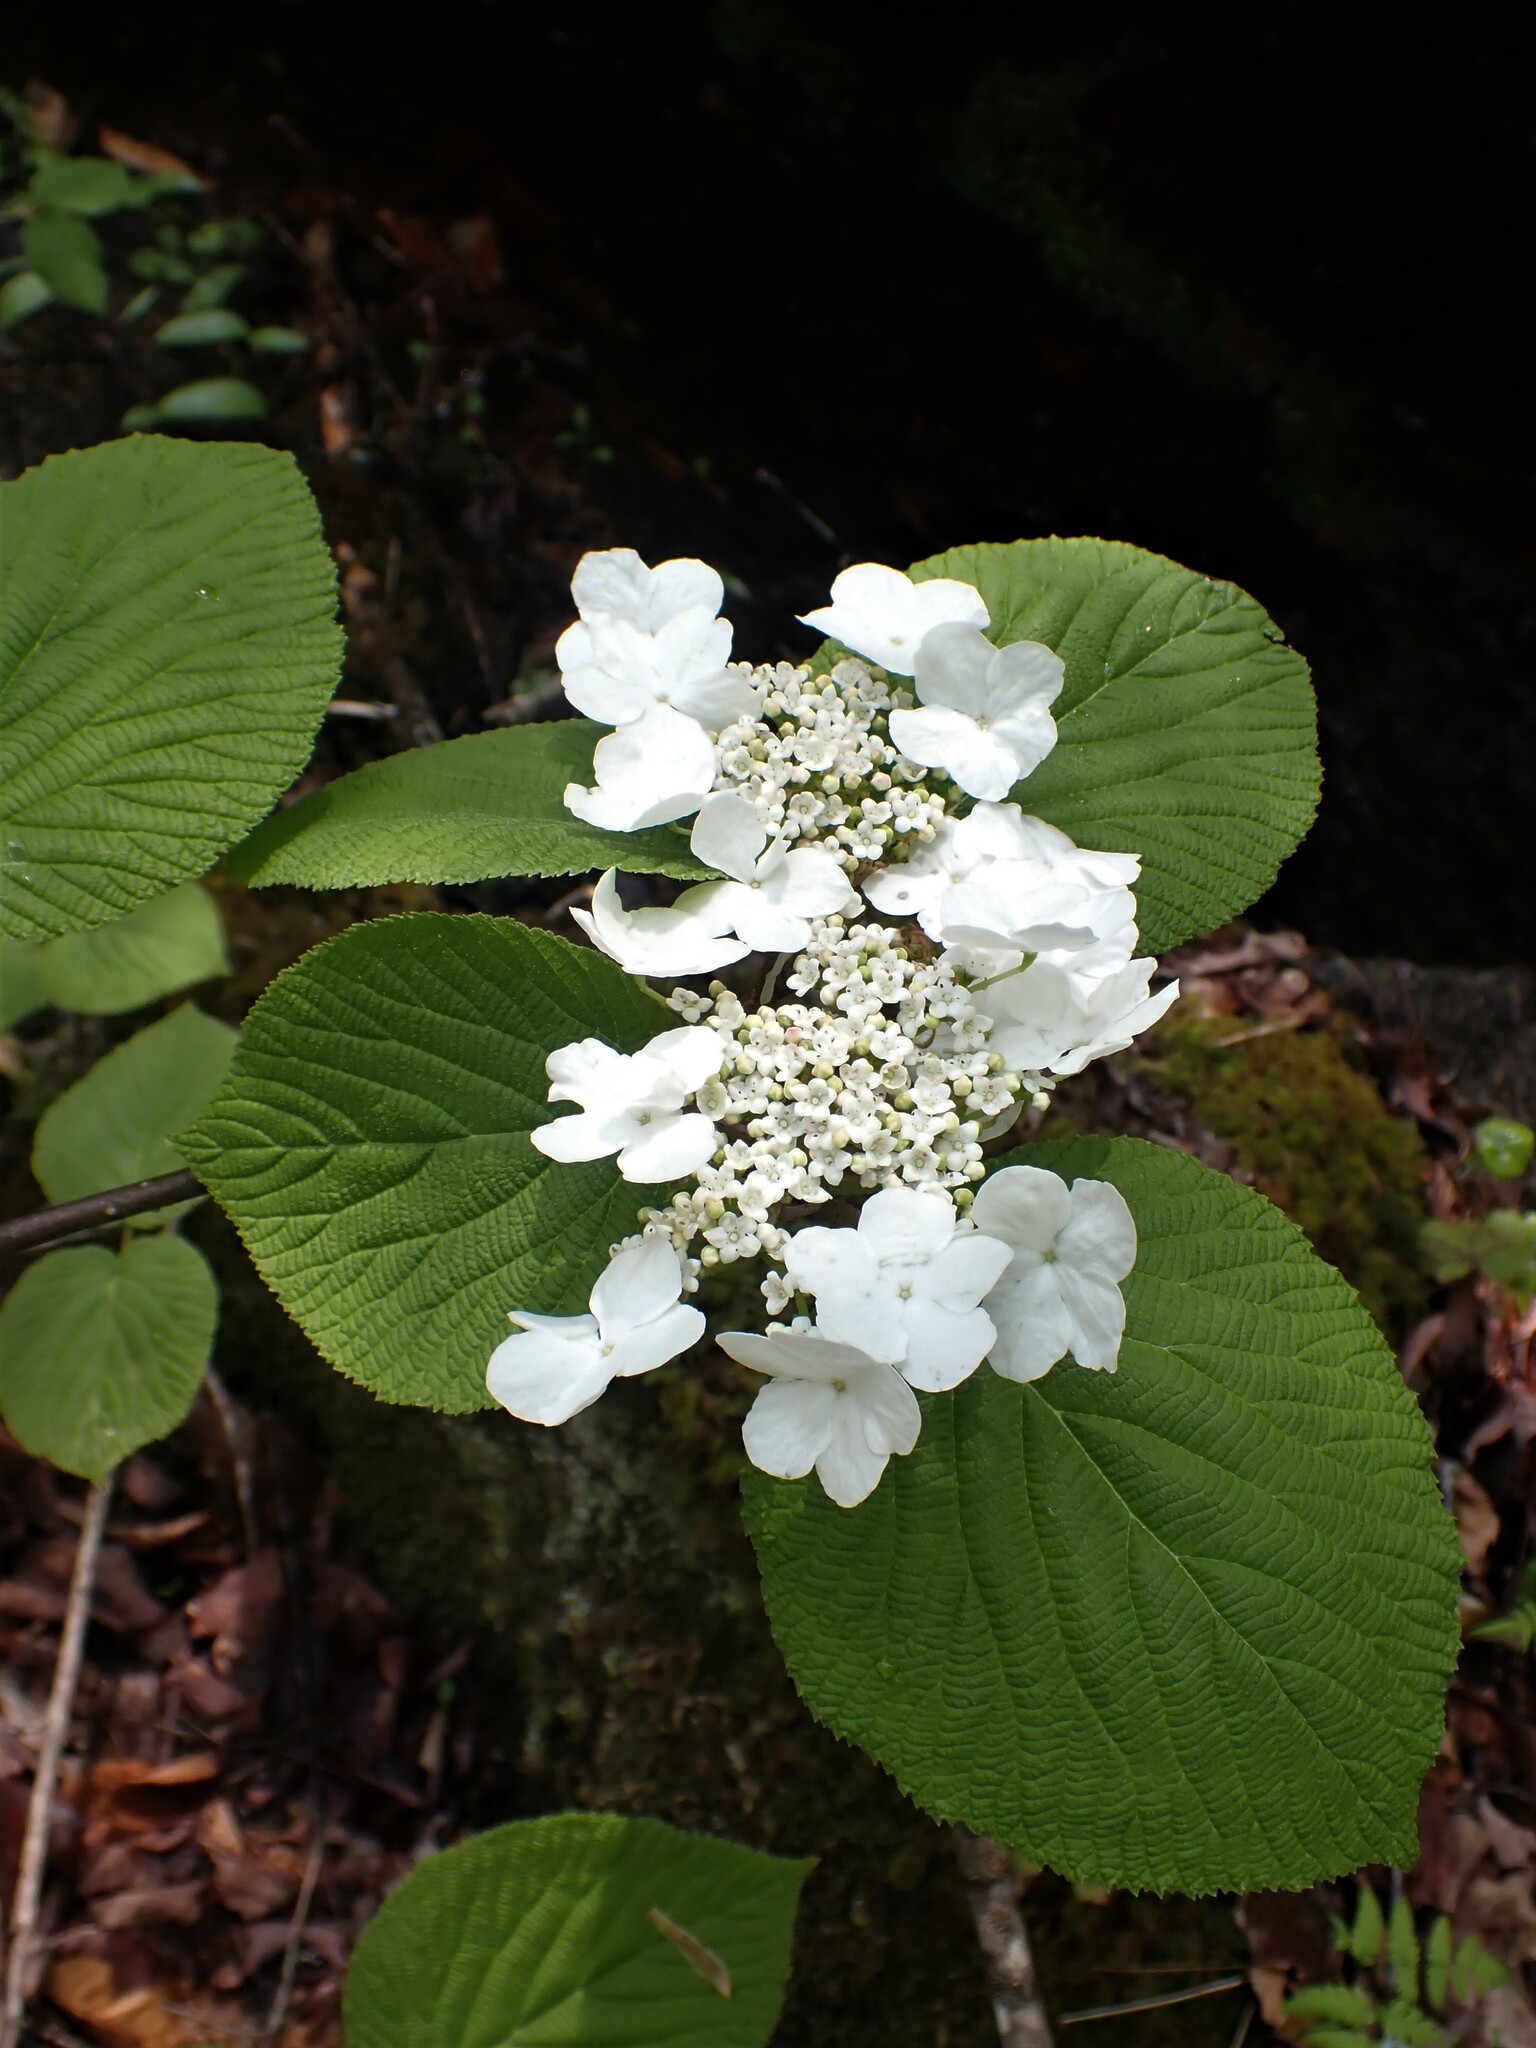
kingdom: Plantae
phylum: Tracheophyta
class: Magnoliopsida
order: Dipsacales
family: Viburnaceae
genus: Viburnum
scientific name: Viburnum lantanoides
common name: Hobblebush
